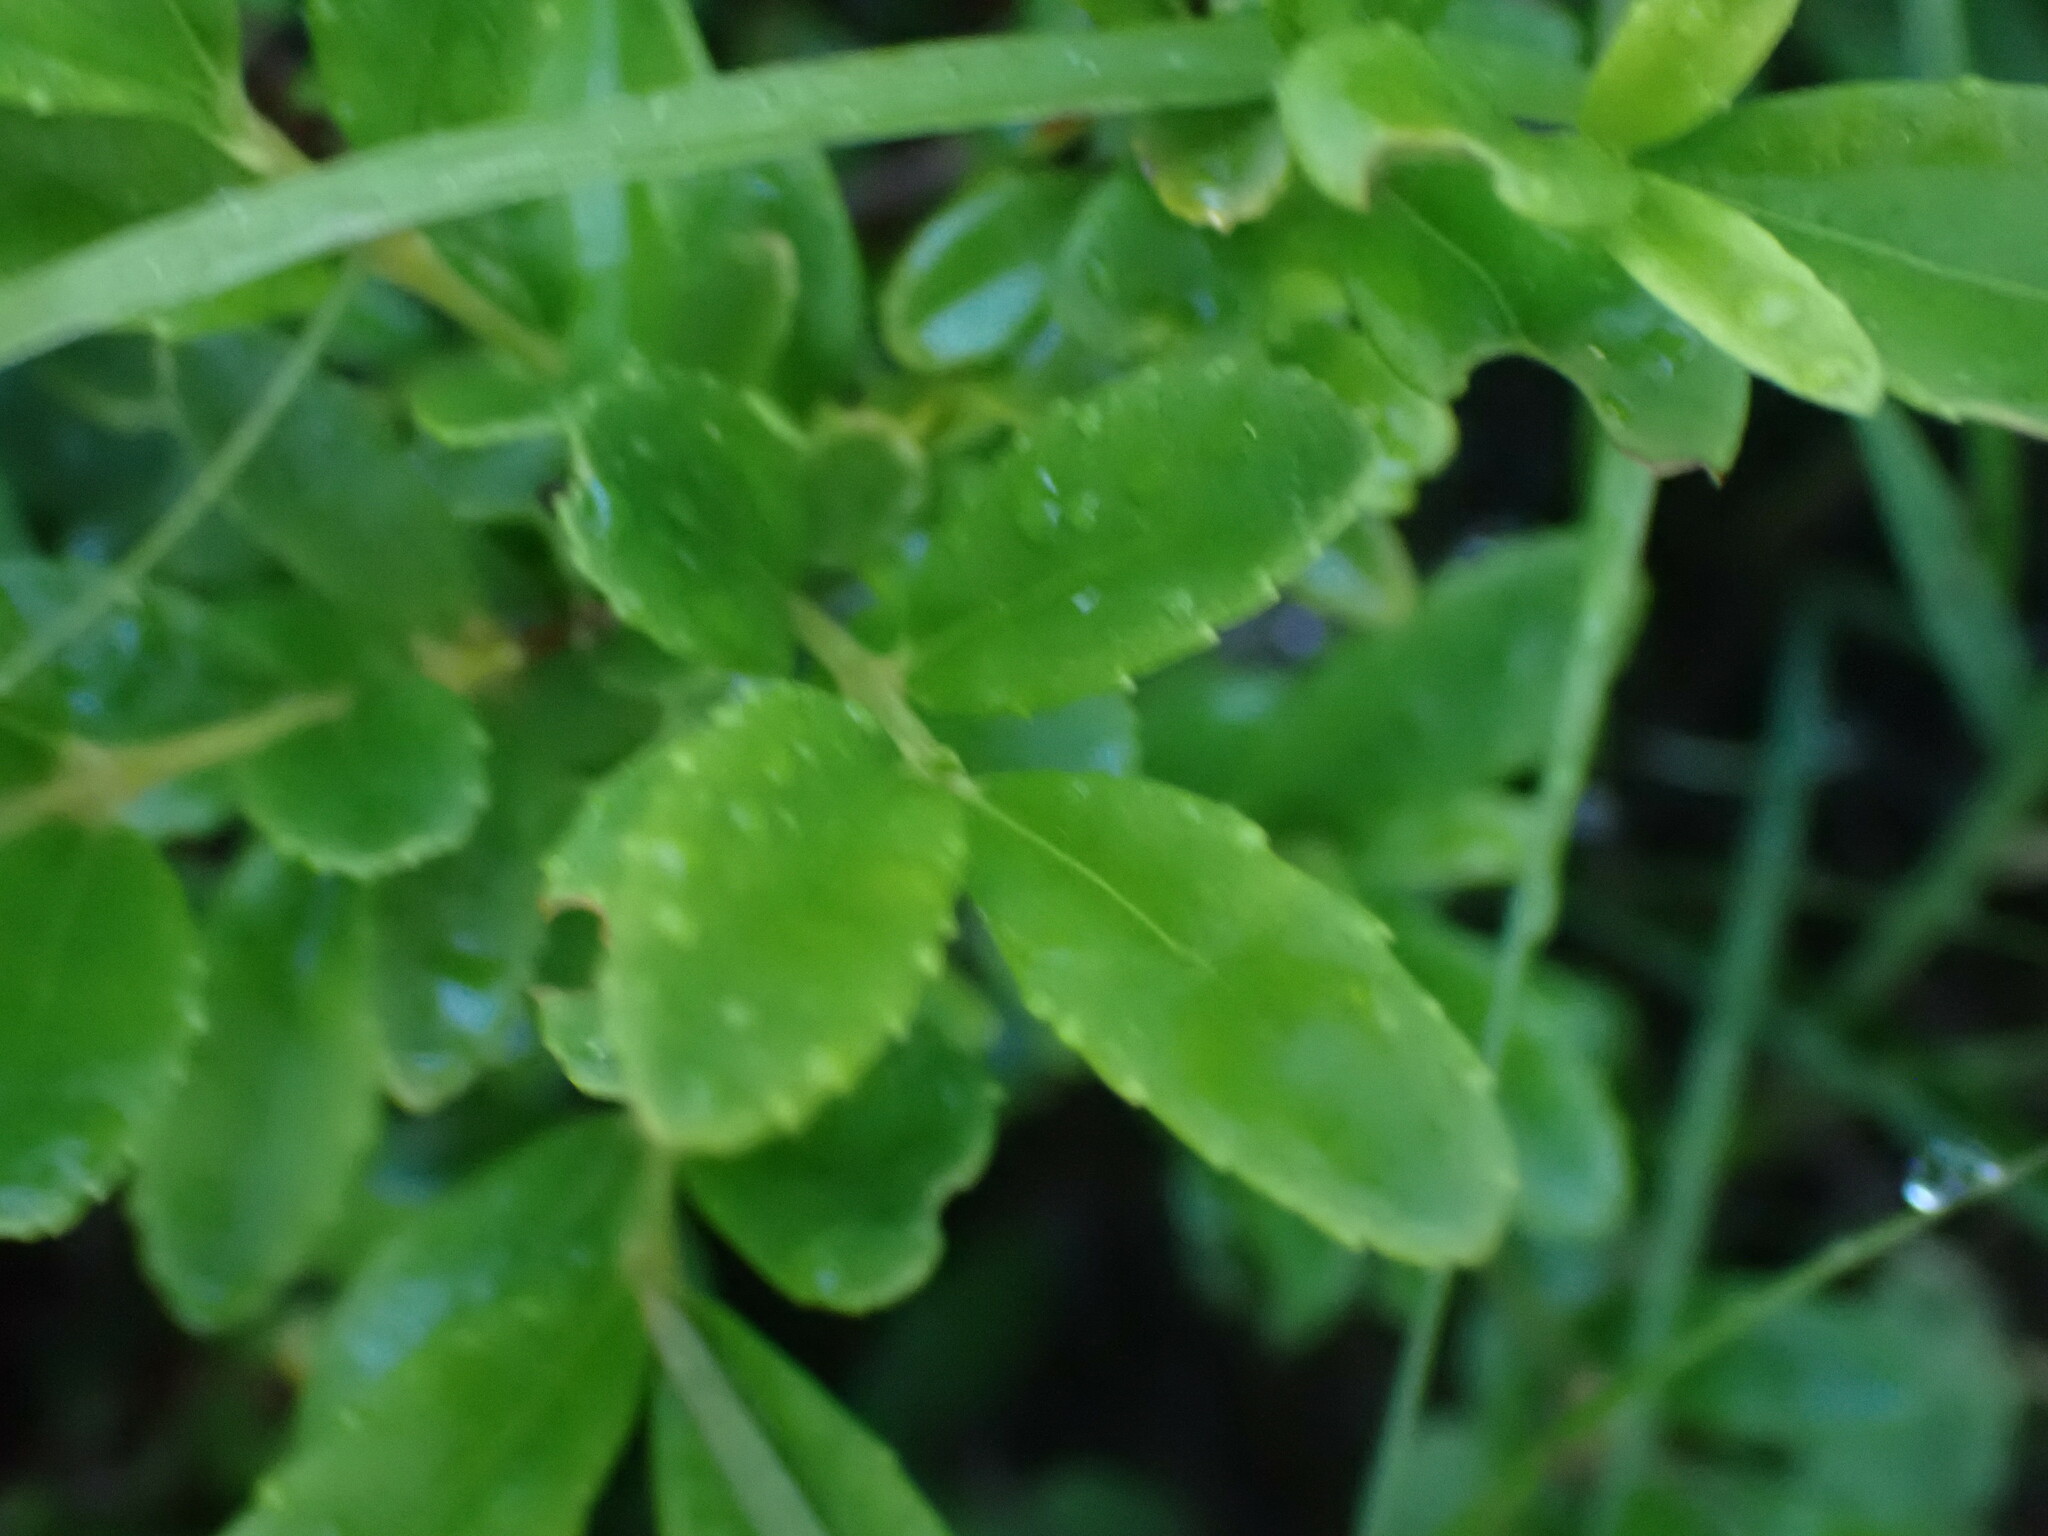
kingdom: Plantae
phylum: Tracheophyta
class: Magnoliopsida
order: Celastrales
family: Celastraceae
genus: Paxistima
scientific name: Paxistima myrsinites
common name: Mountain-lover
